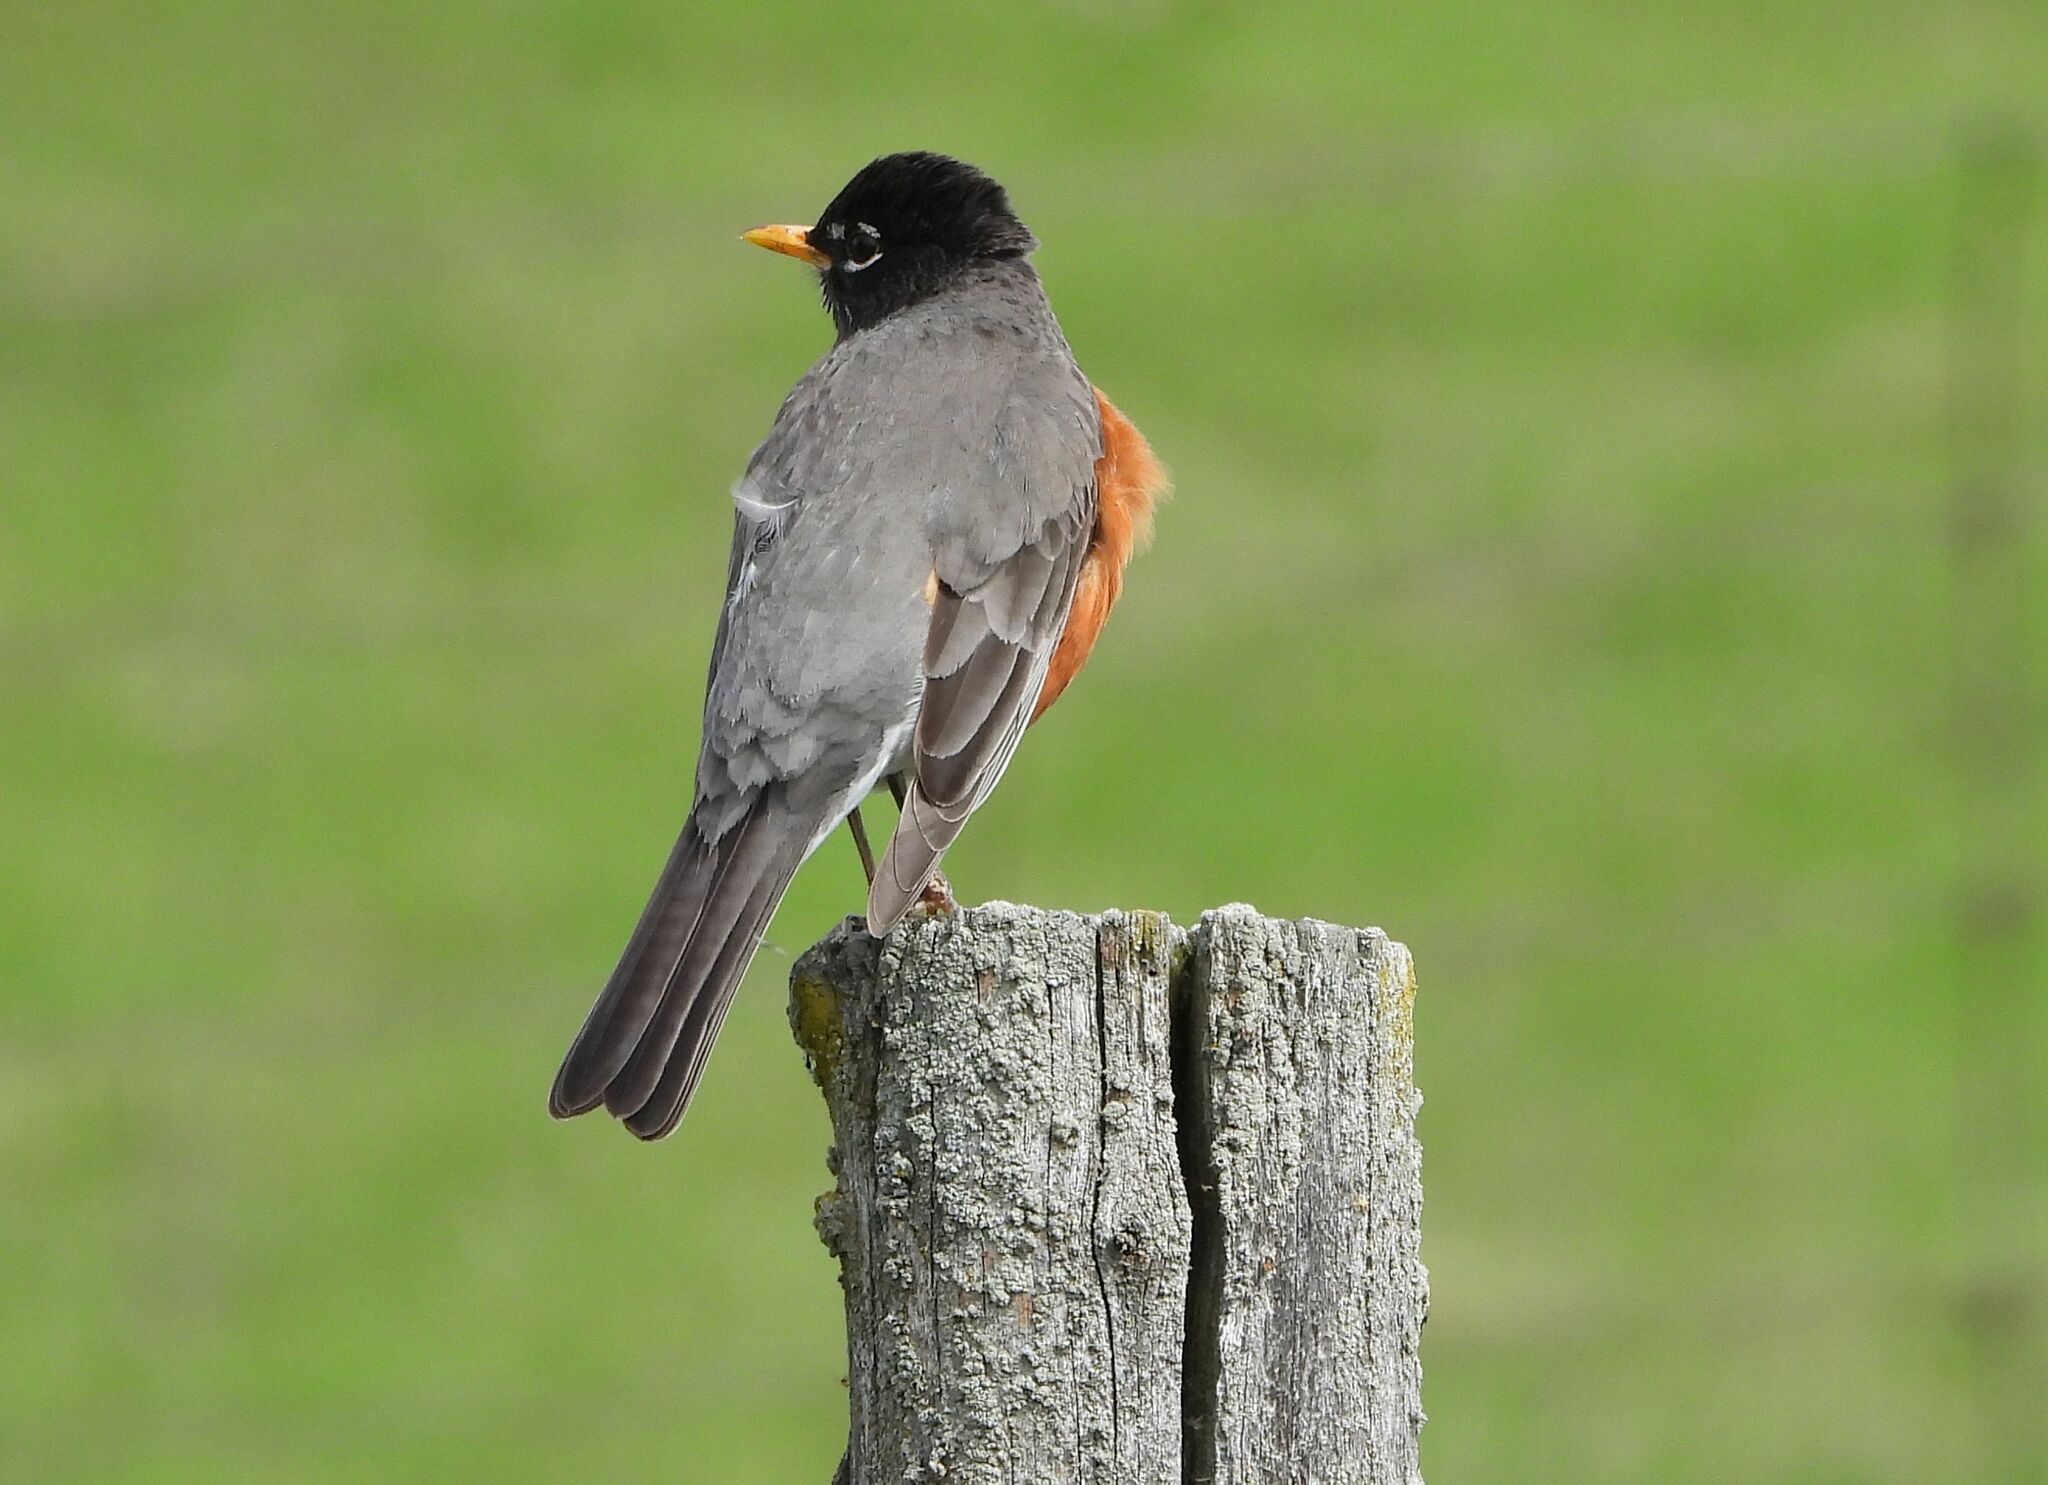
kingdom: Animalia
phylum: Chordata
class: Aves
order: Passeriformes
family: Turdidae
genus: Turdus
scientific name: Turdus migratorius
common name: American robin
